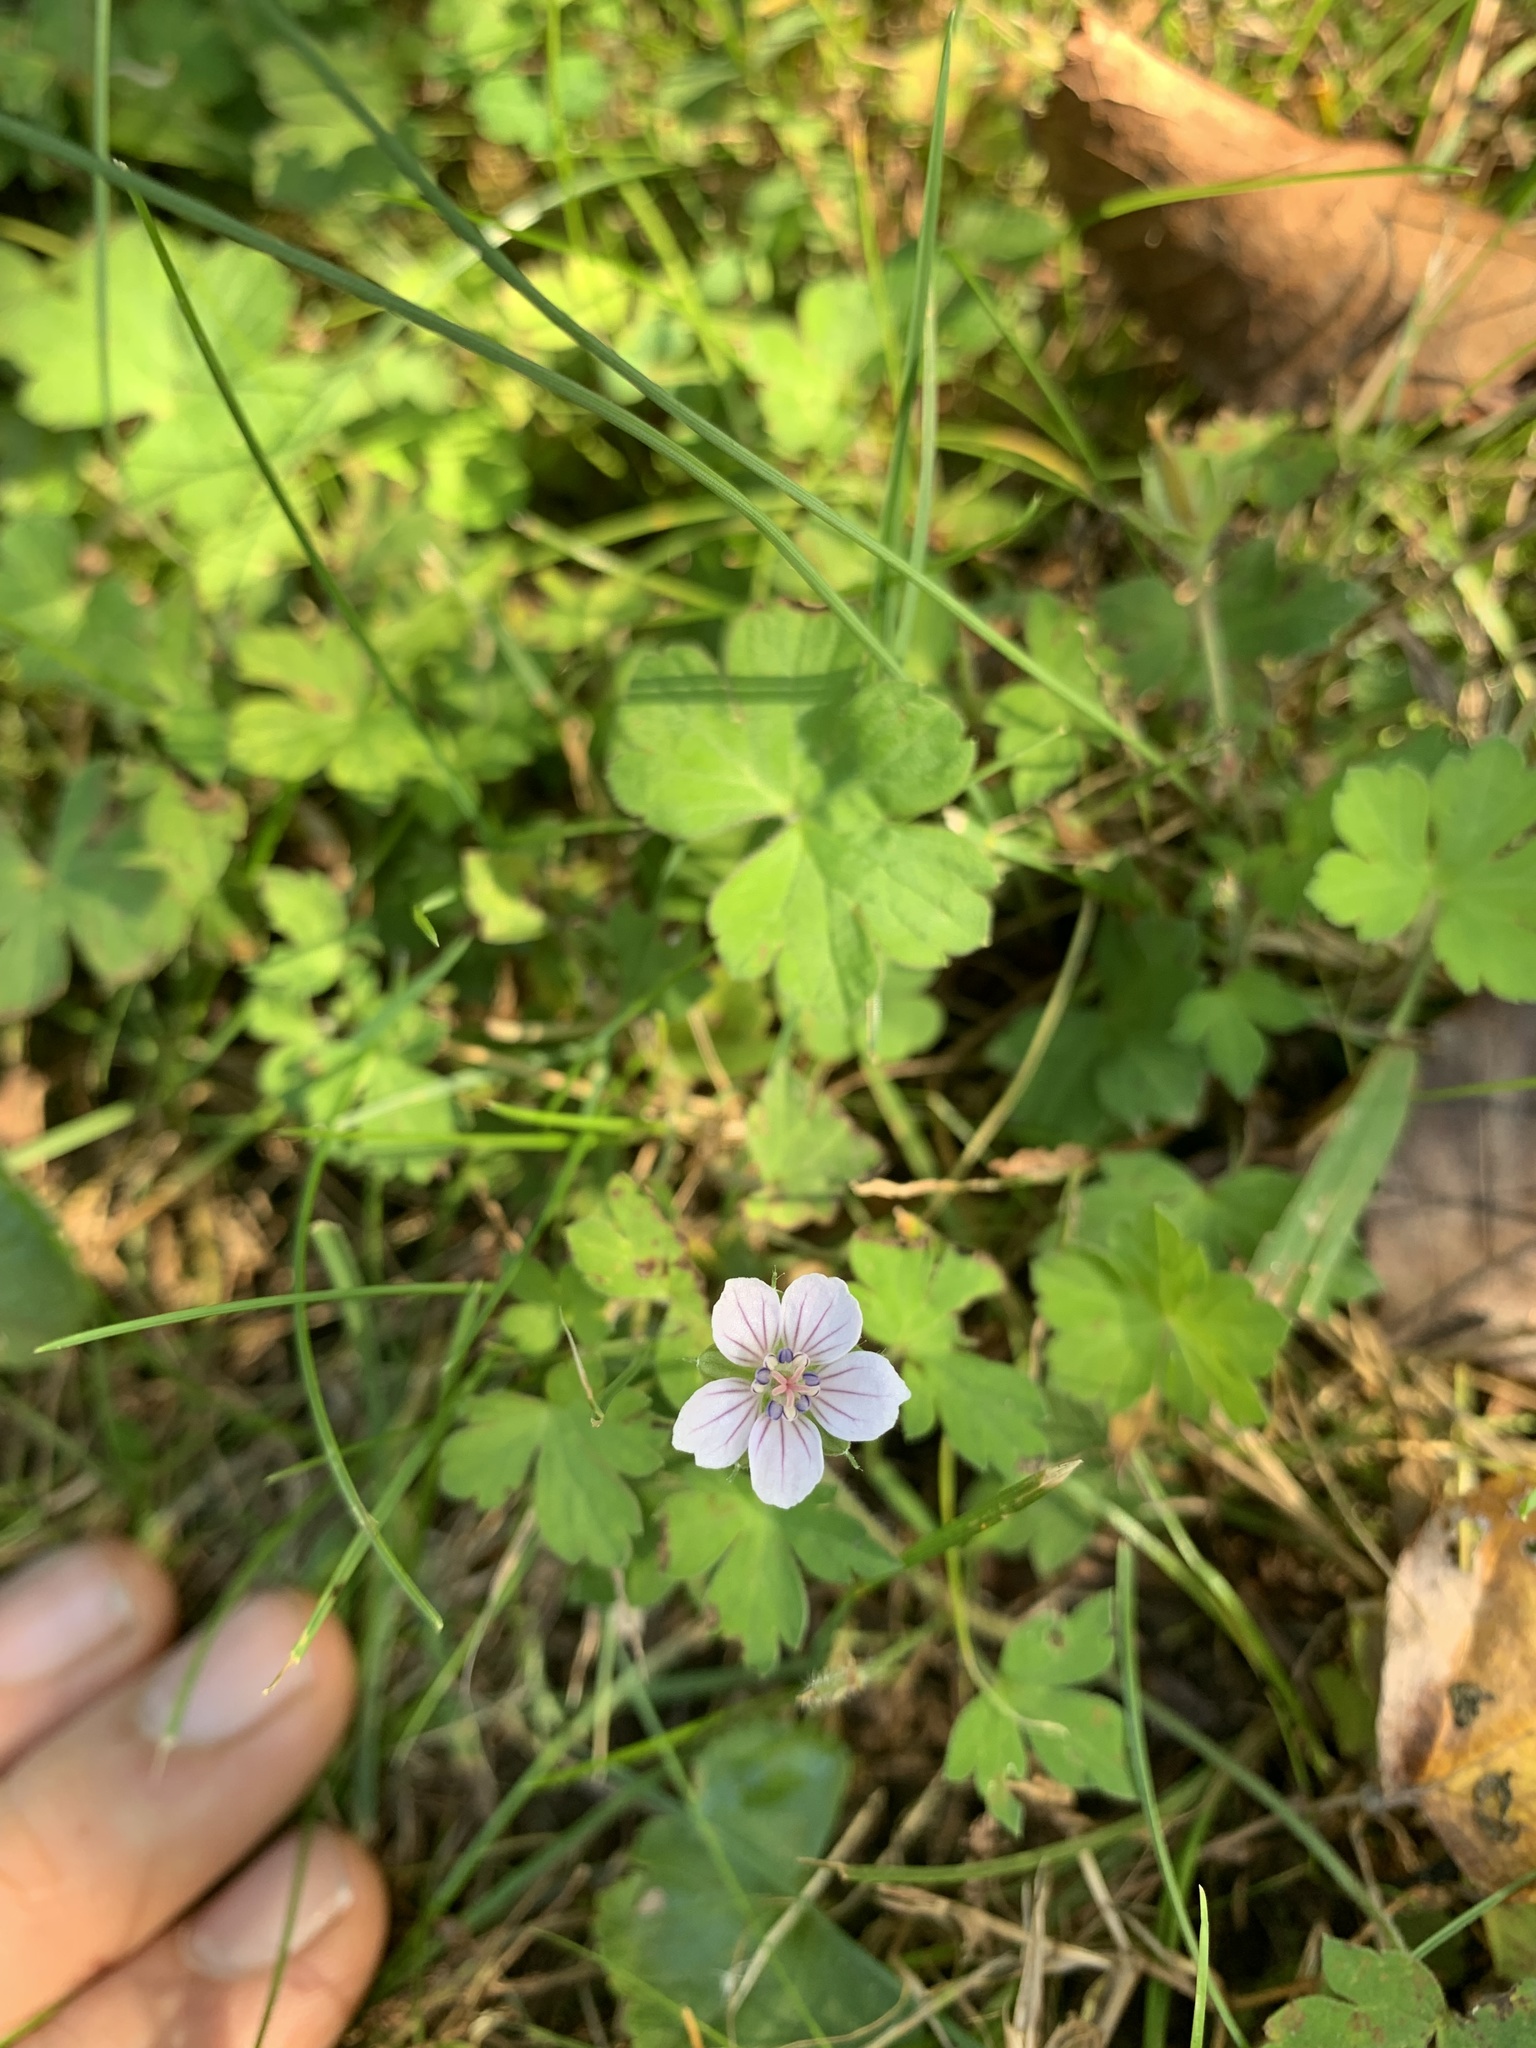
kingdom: Plantae
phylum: Tracheophyta
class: Magnoliopsida
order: Geraniales
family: Geraniaceae
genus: Geranium
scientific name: Geranium thunbergii
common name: Dewdrop crane's-bill
